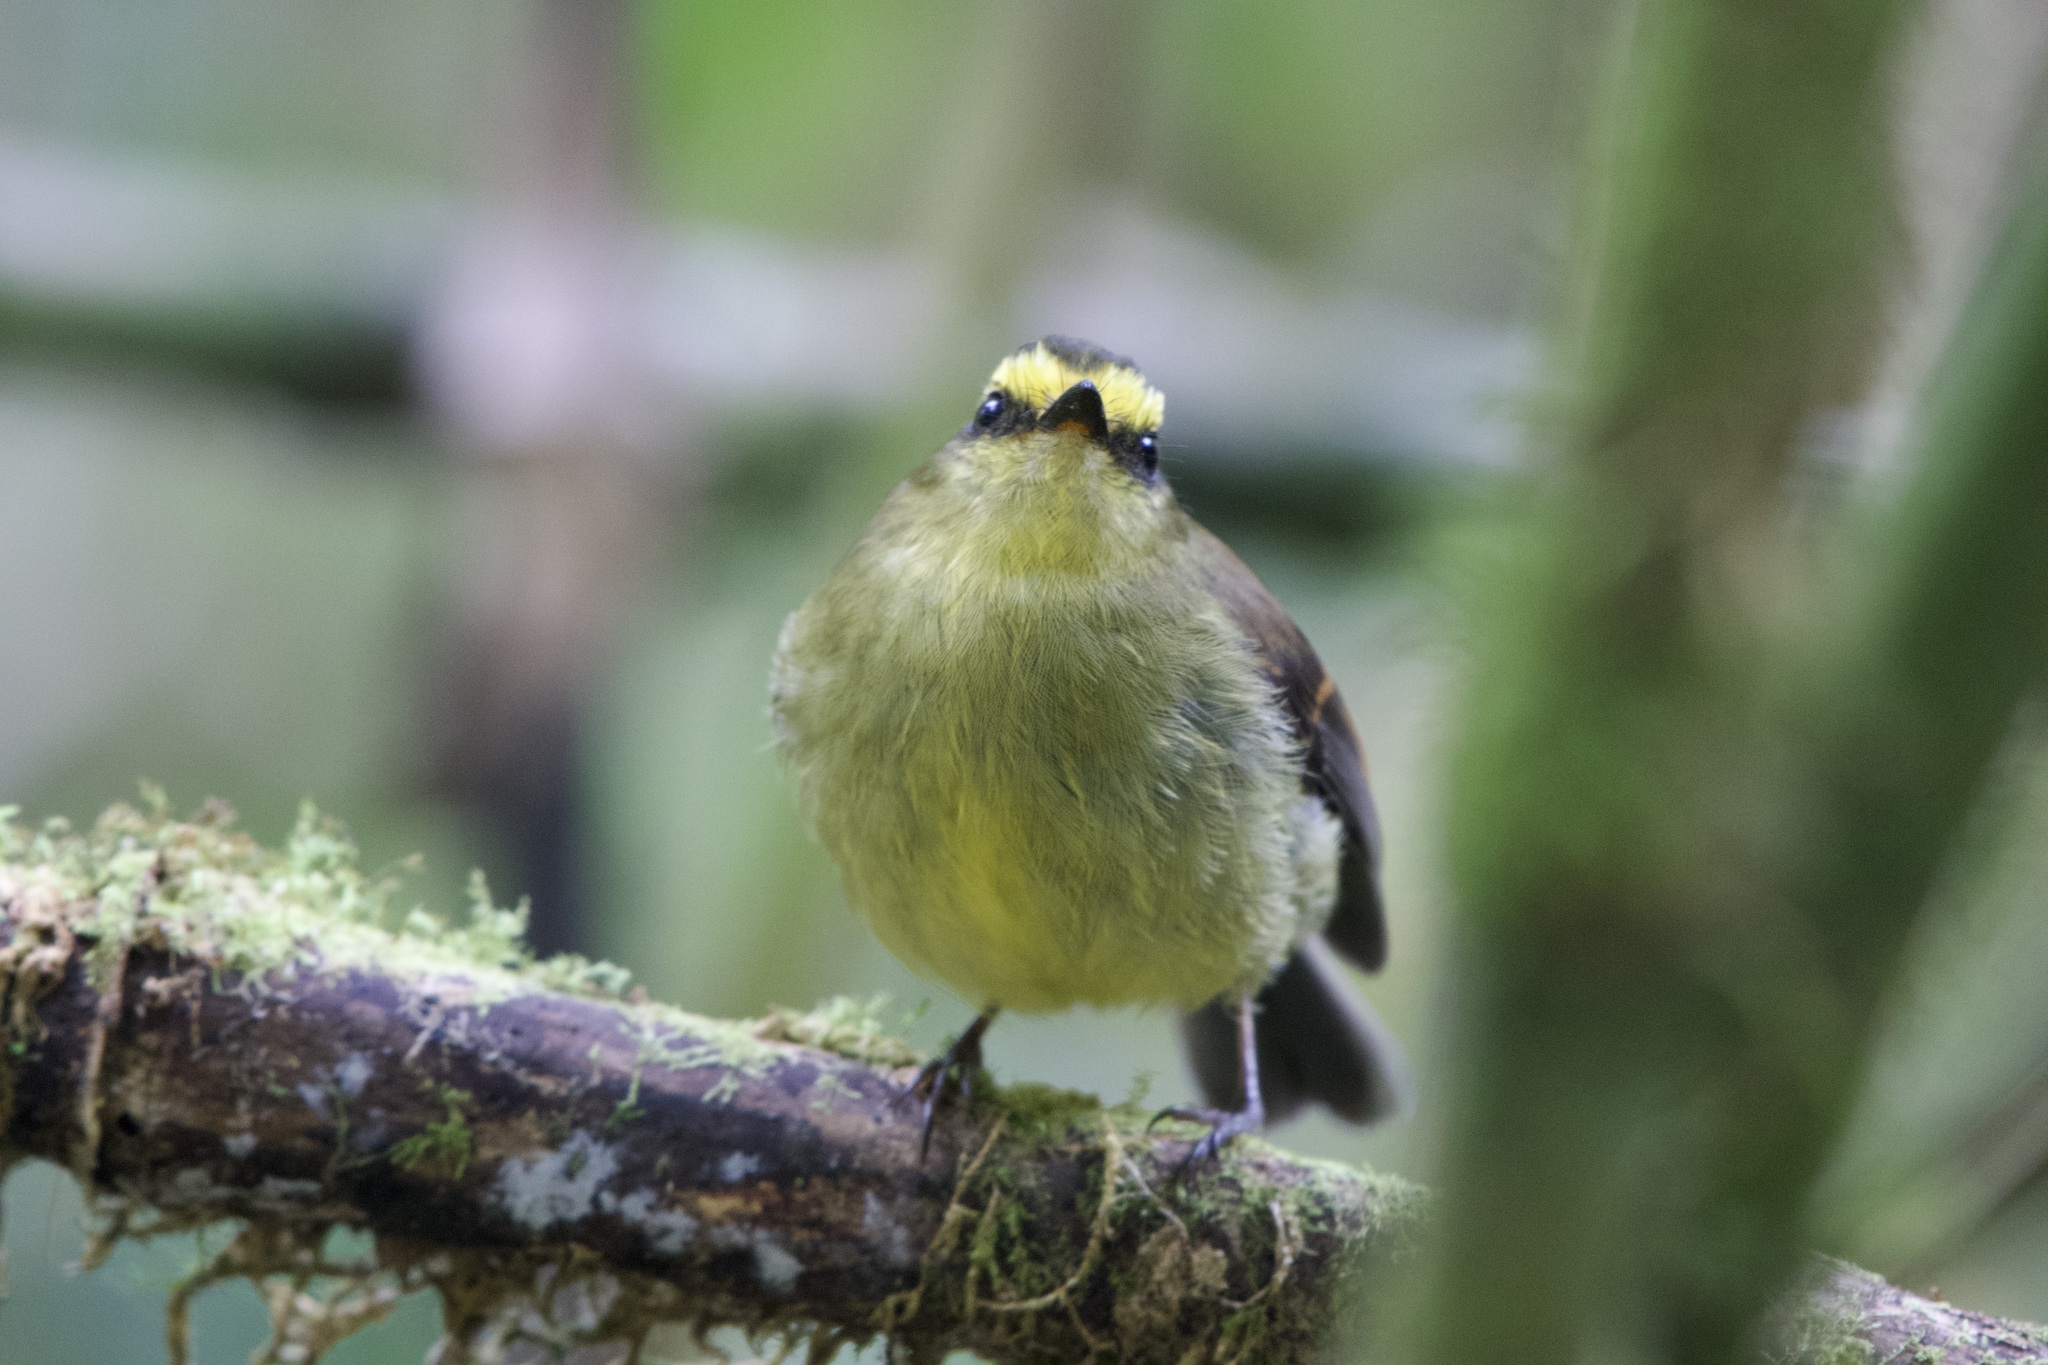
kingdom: Animalia
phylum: Chordata
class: Aves
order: Passeriformes
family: Tyrannidae
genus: Ochthoeca
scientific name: Ochthoeca diadema
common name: Yellow-bellied chat-tyrant
